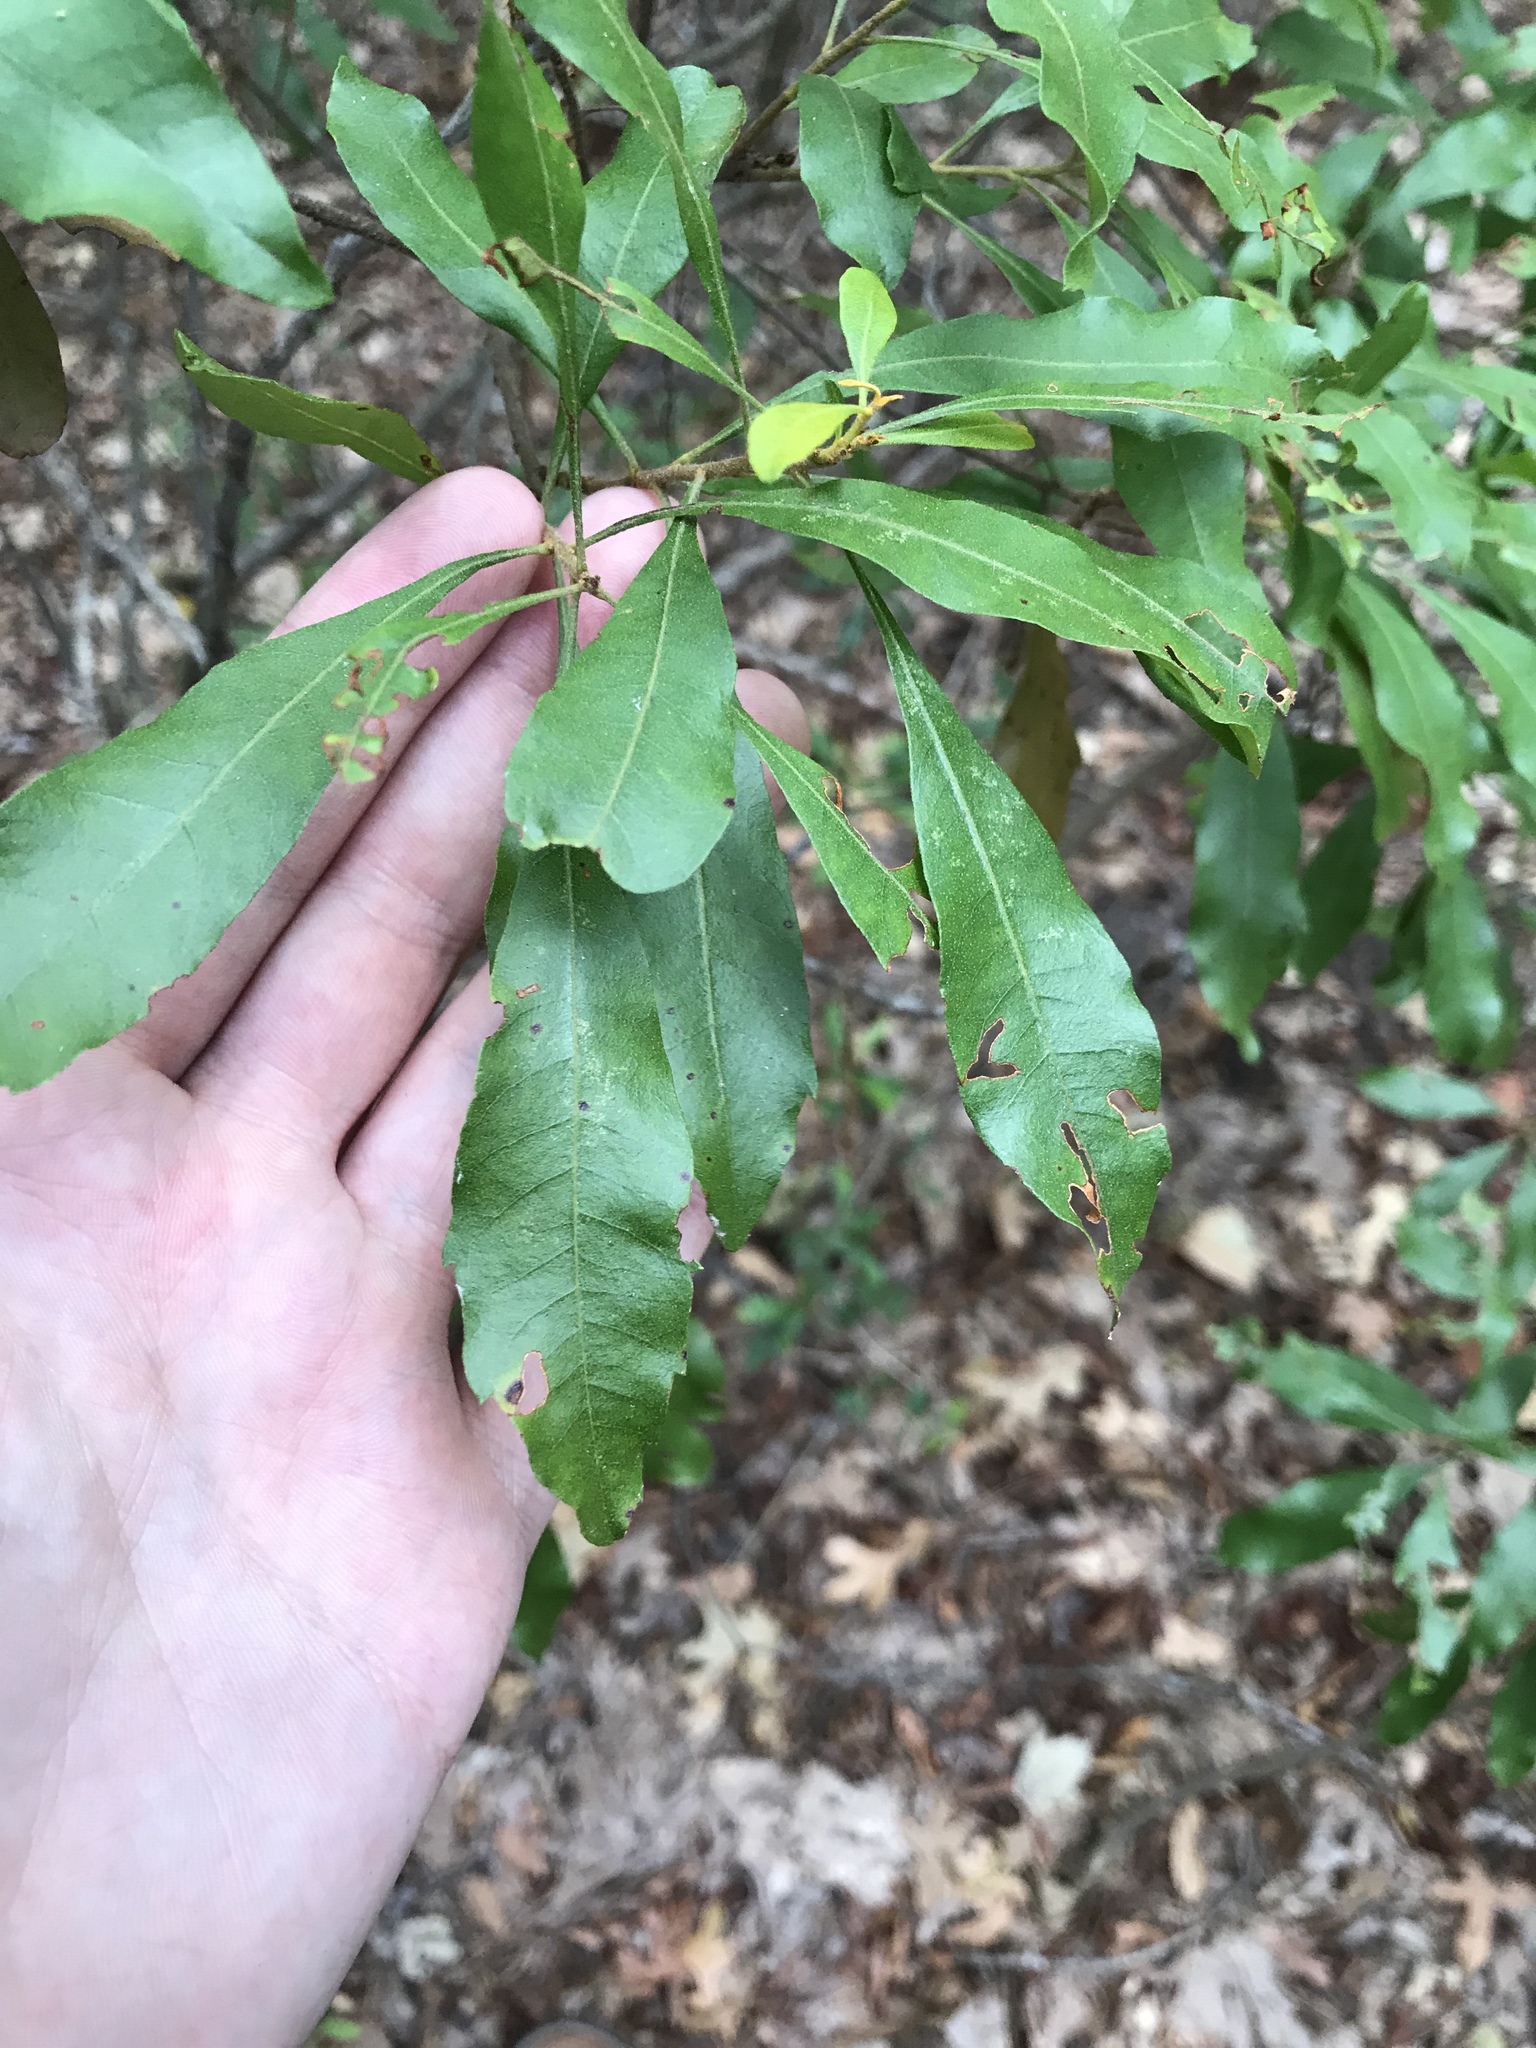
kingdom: Plantae
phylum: Tracheophyta
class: Magnoliopsida
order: Fagales
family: Myricaceae
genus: Morella
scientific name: Morella cerifera
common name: Wax myrtle
